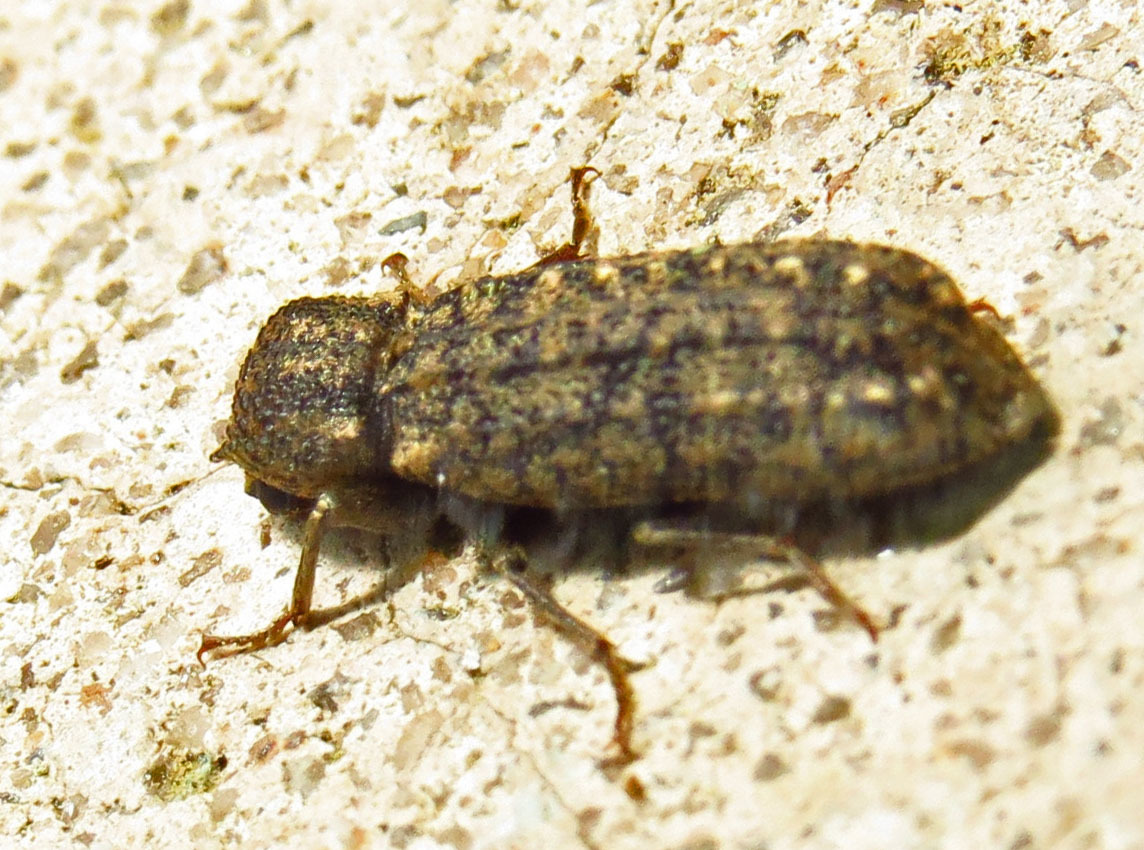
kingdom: Animalia
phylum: Arthropoda
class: Insecta
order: Coleoptera
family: Bostrichidae
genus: Lichenophanes
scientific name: Lichenophanes bicornis
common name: Two-horned powder-post beetle
